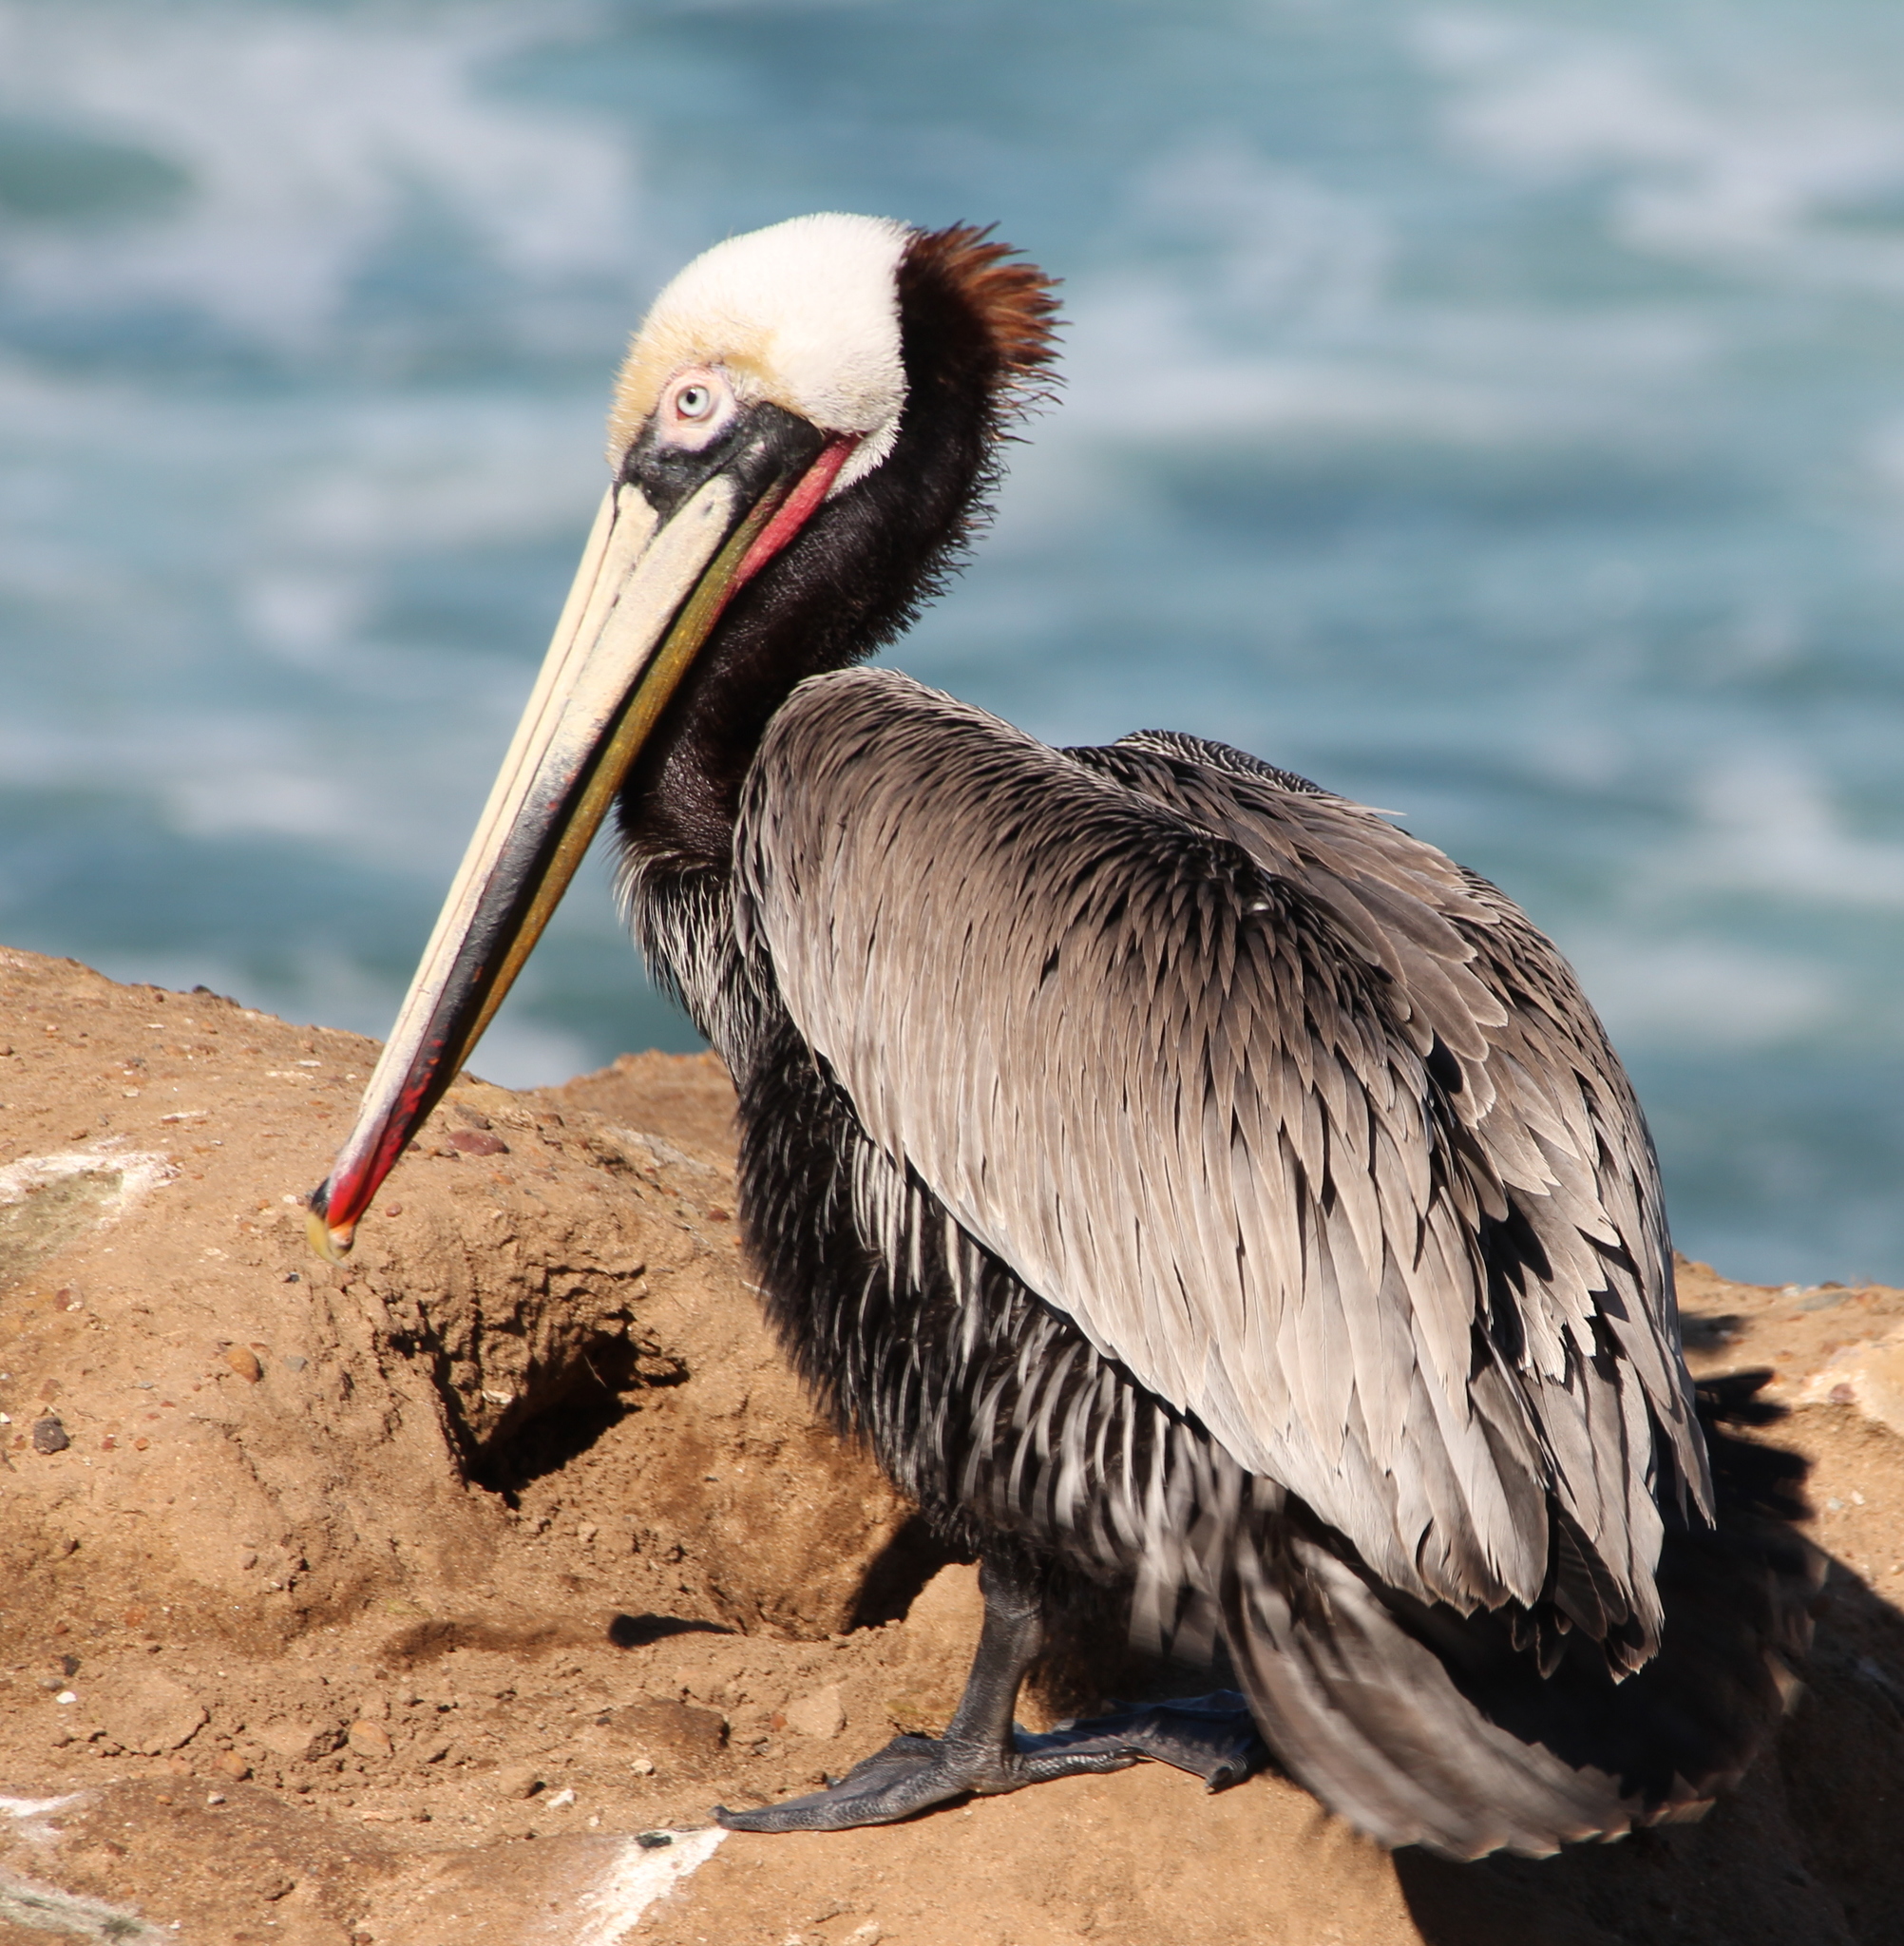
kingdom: Animalia
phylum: Chordata
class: Aves
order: Pelecaniformes
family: Pelecanidae
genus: Pelecanus
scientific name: Pelecanus occidentalis
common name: Brown pelican
